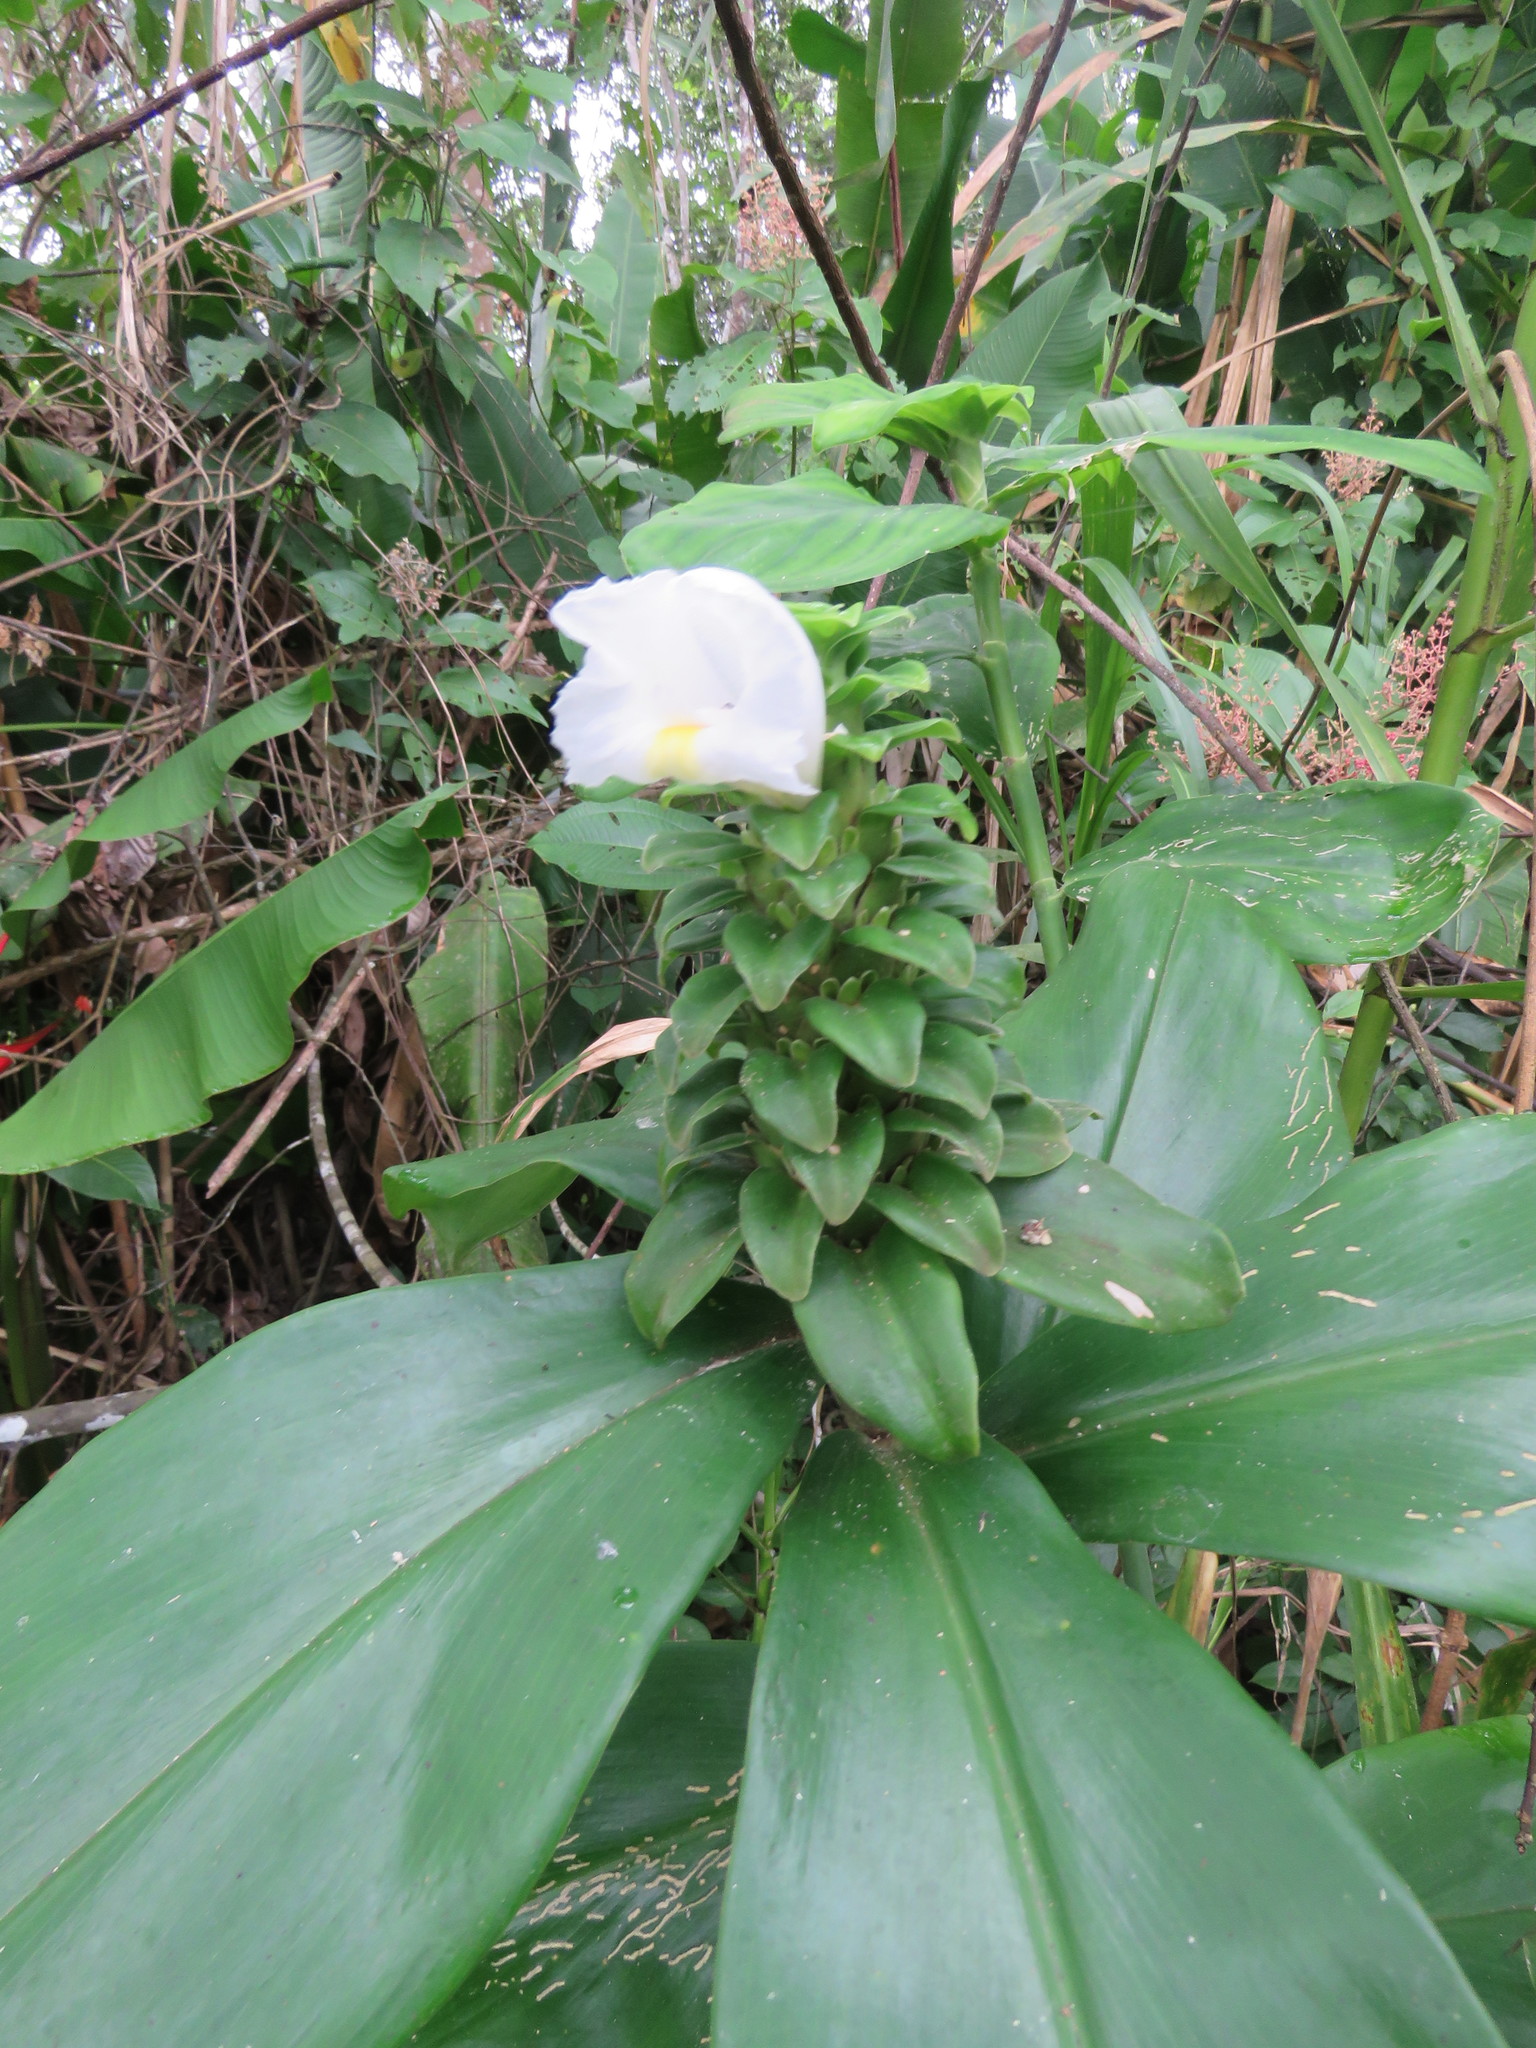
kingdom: Plantae
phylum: Tracheophyta
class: Liliopsida
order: Zingiberales
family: Costaceae
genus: Costus
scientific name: Costus arabicus
